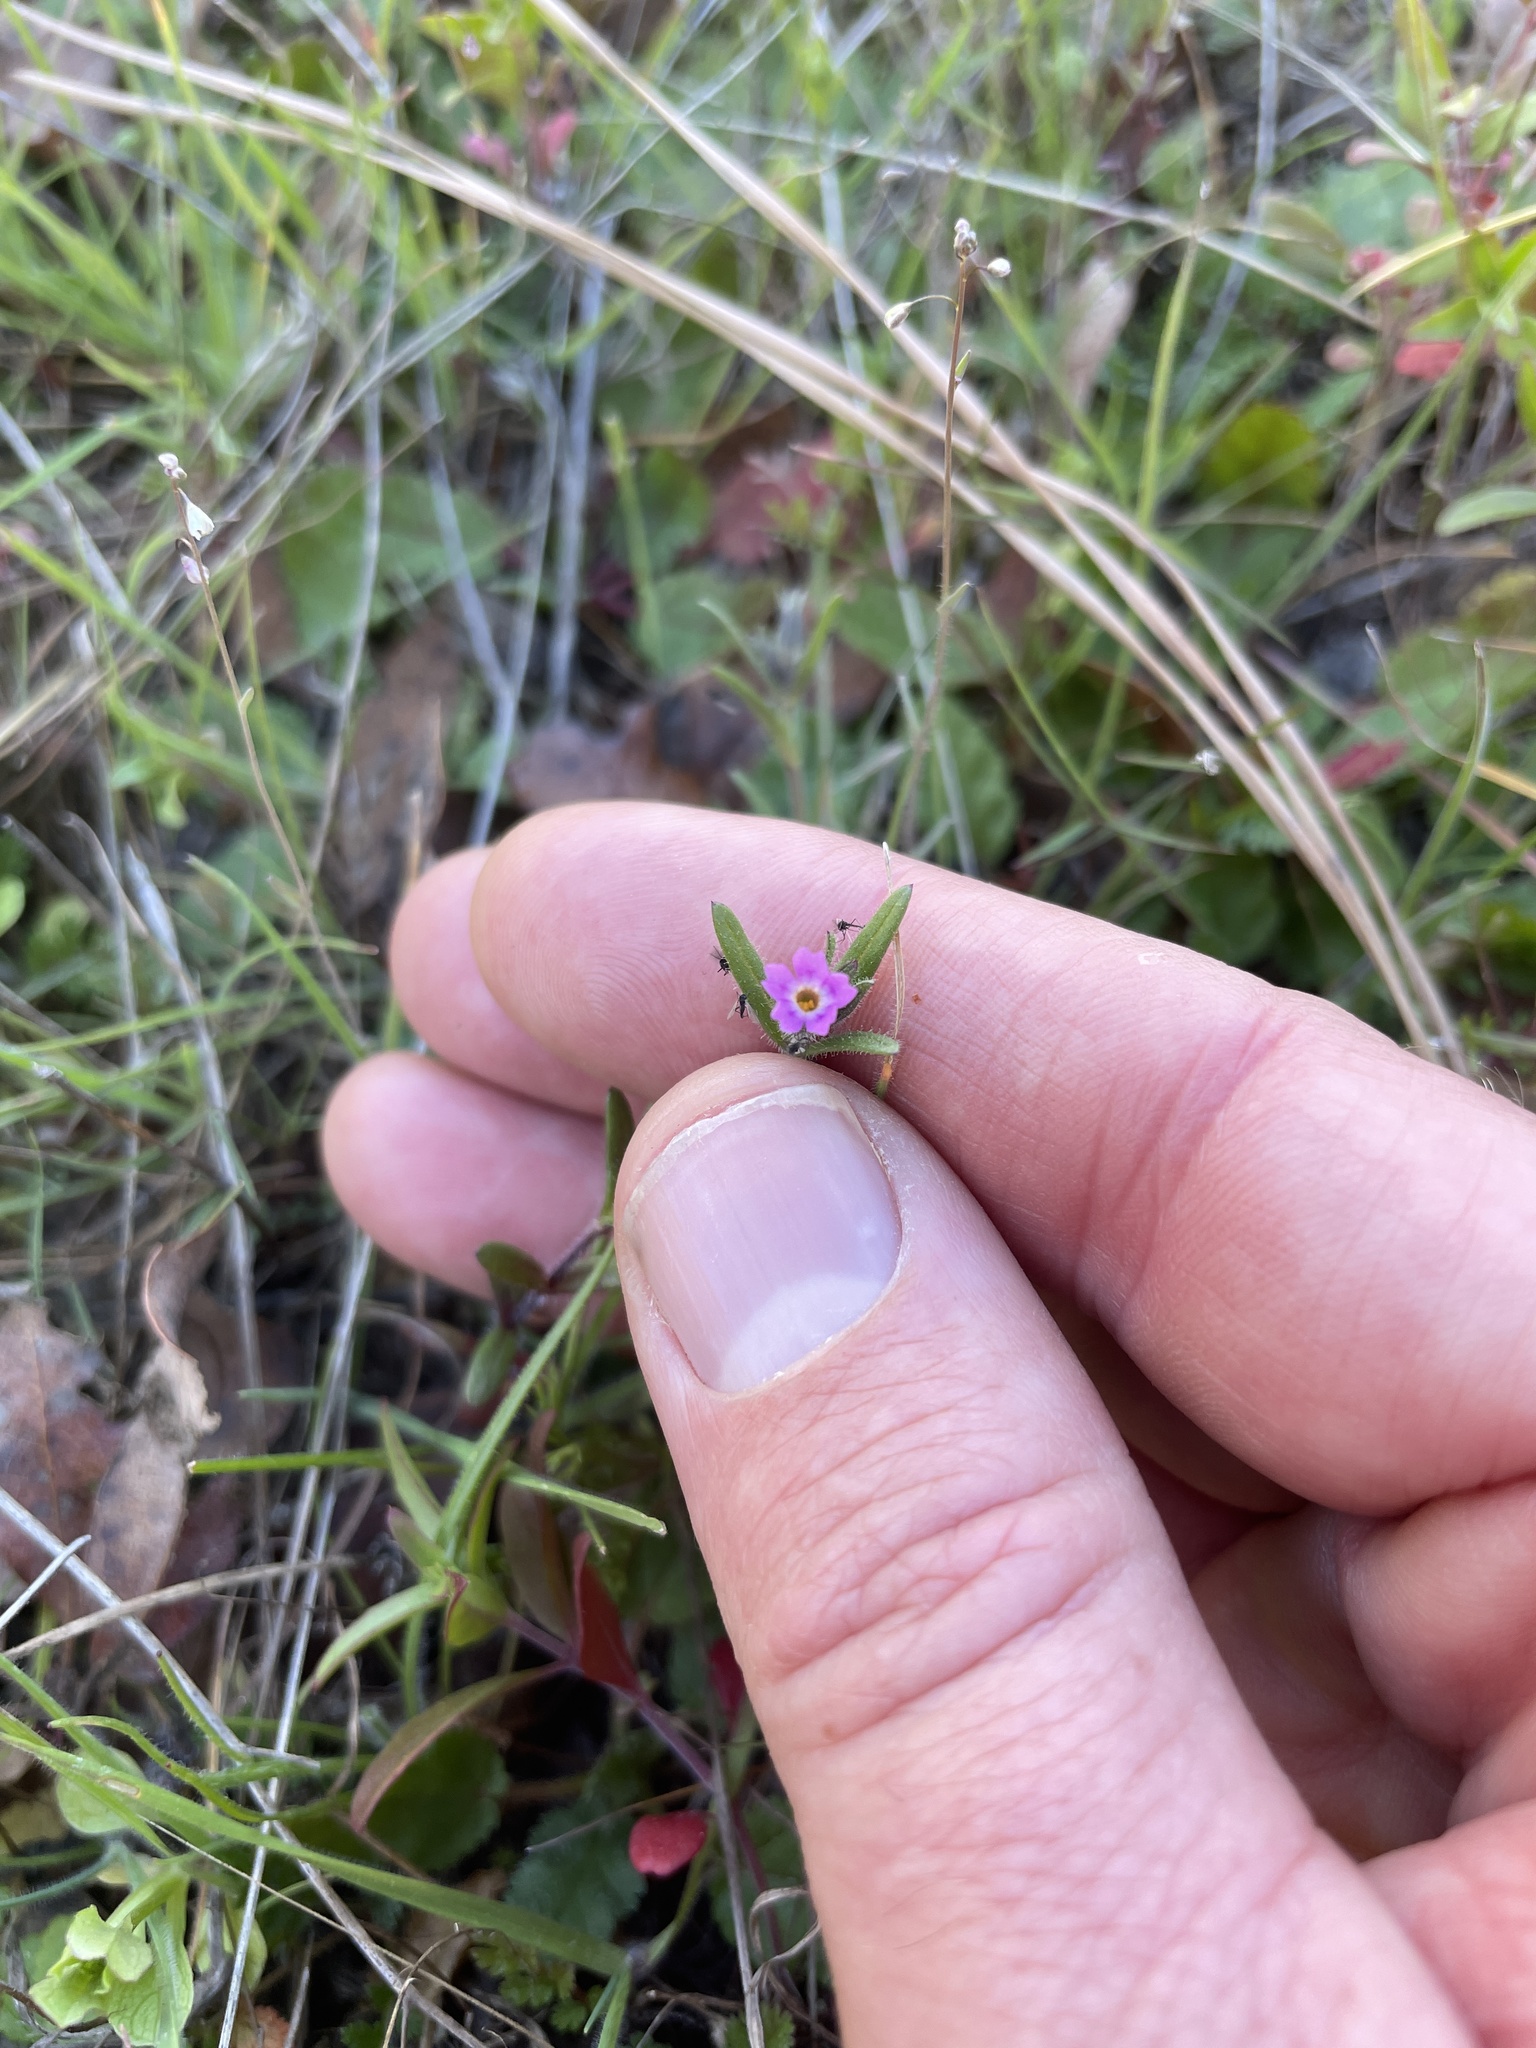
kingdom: Plantae
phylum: Tracheophyta
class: Magnoliopsida
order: Ericales
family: Polemoniaceae
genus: Phlox
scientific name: Phlox gracilis
